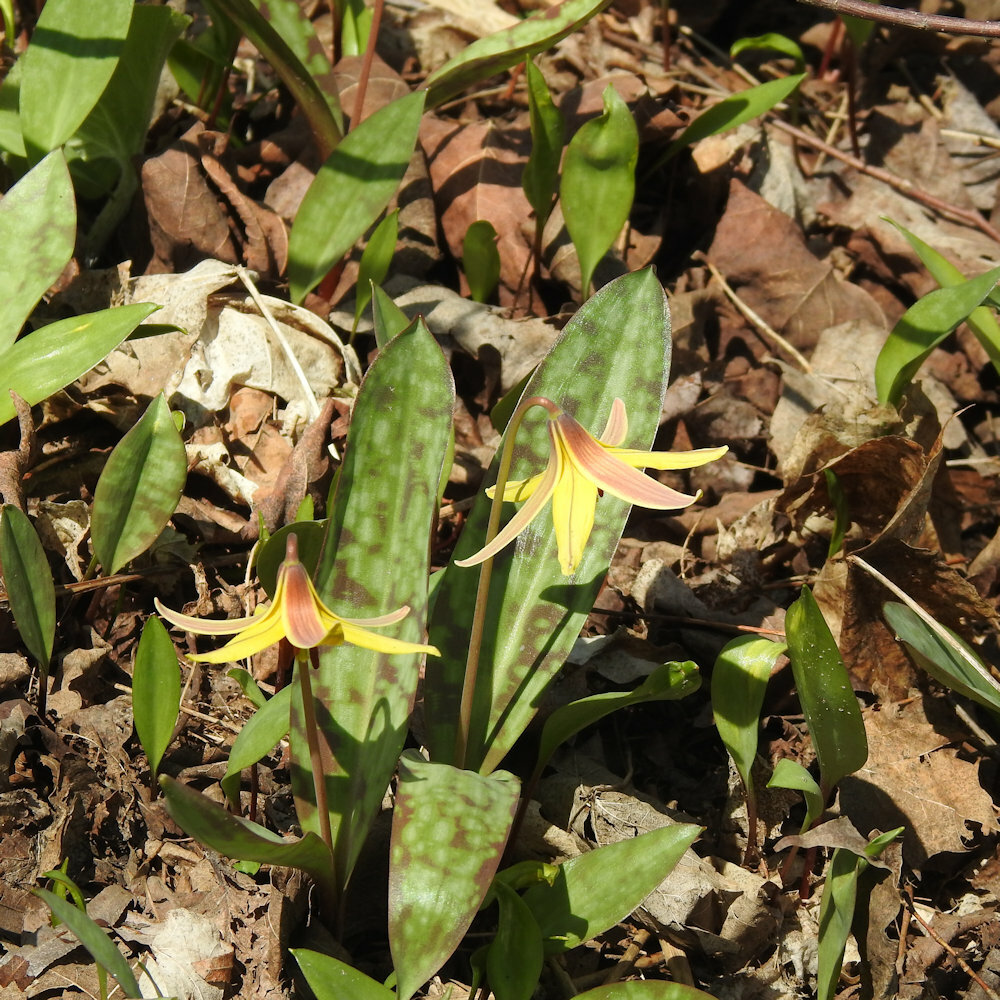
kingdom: Plantae
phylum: Tracheophyta
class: Liliopsida
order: Liliales
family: Liliaceae
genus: Erythronium
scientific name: Erythronium americanum
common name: Yellow adder's-tongue
